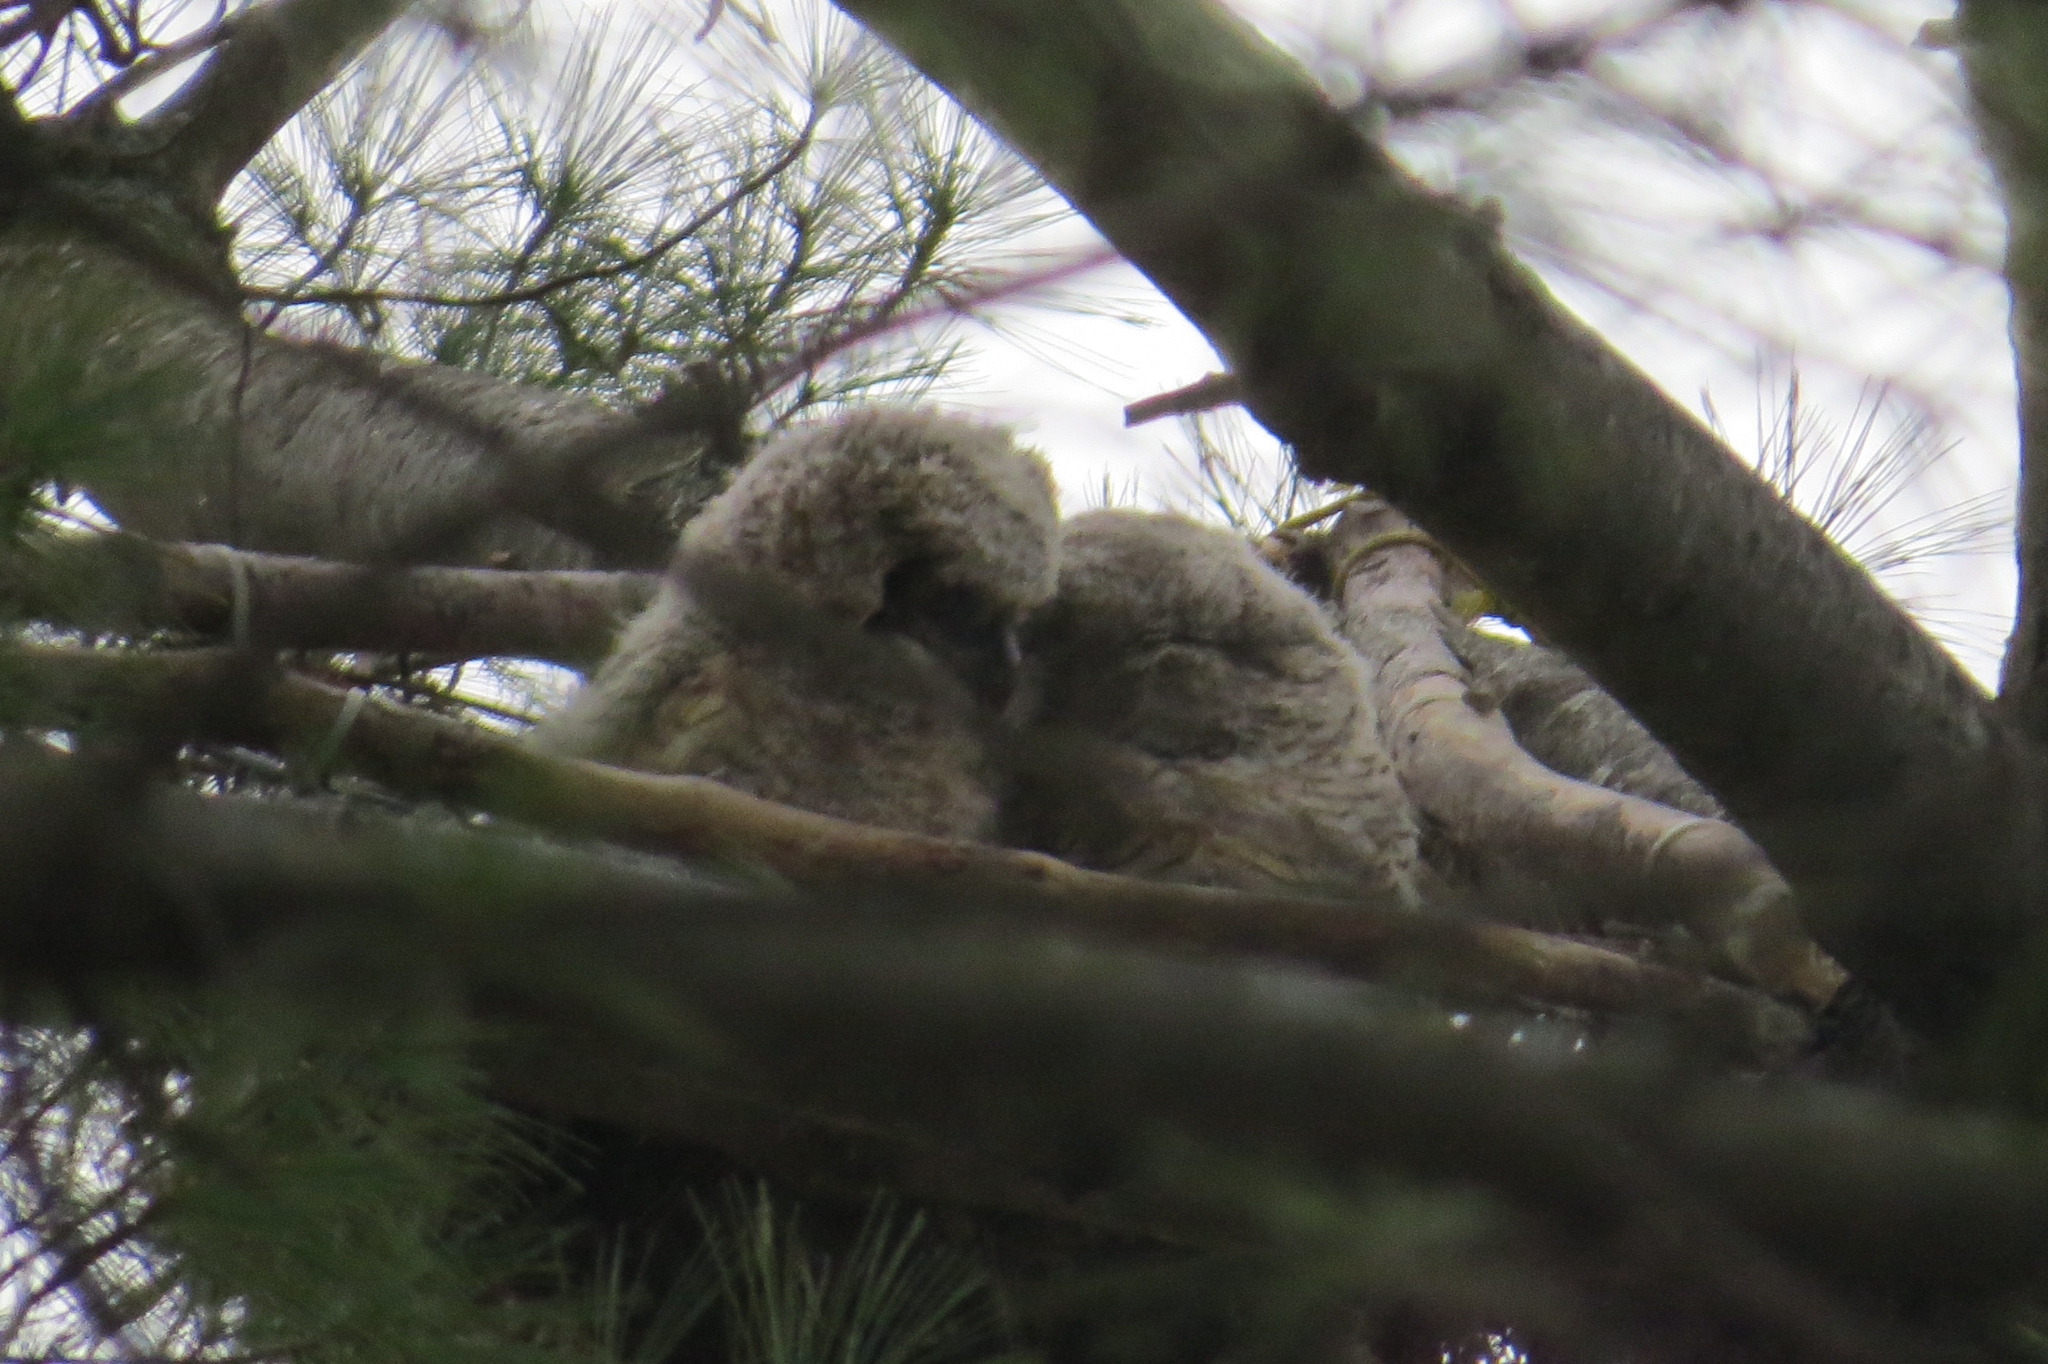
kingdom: Animalia
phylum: Chordata
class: Aves
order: Strigiformes
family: Strigidae
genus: Bubo
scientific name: Bubo virginianus
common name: Great horned owl
